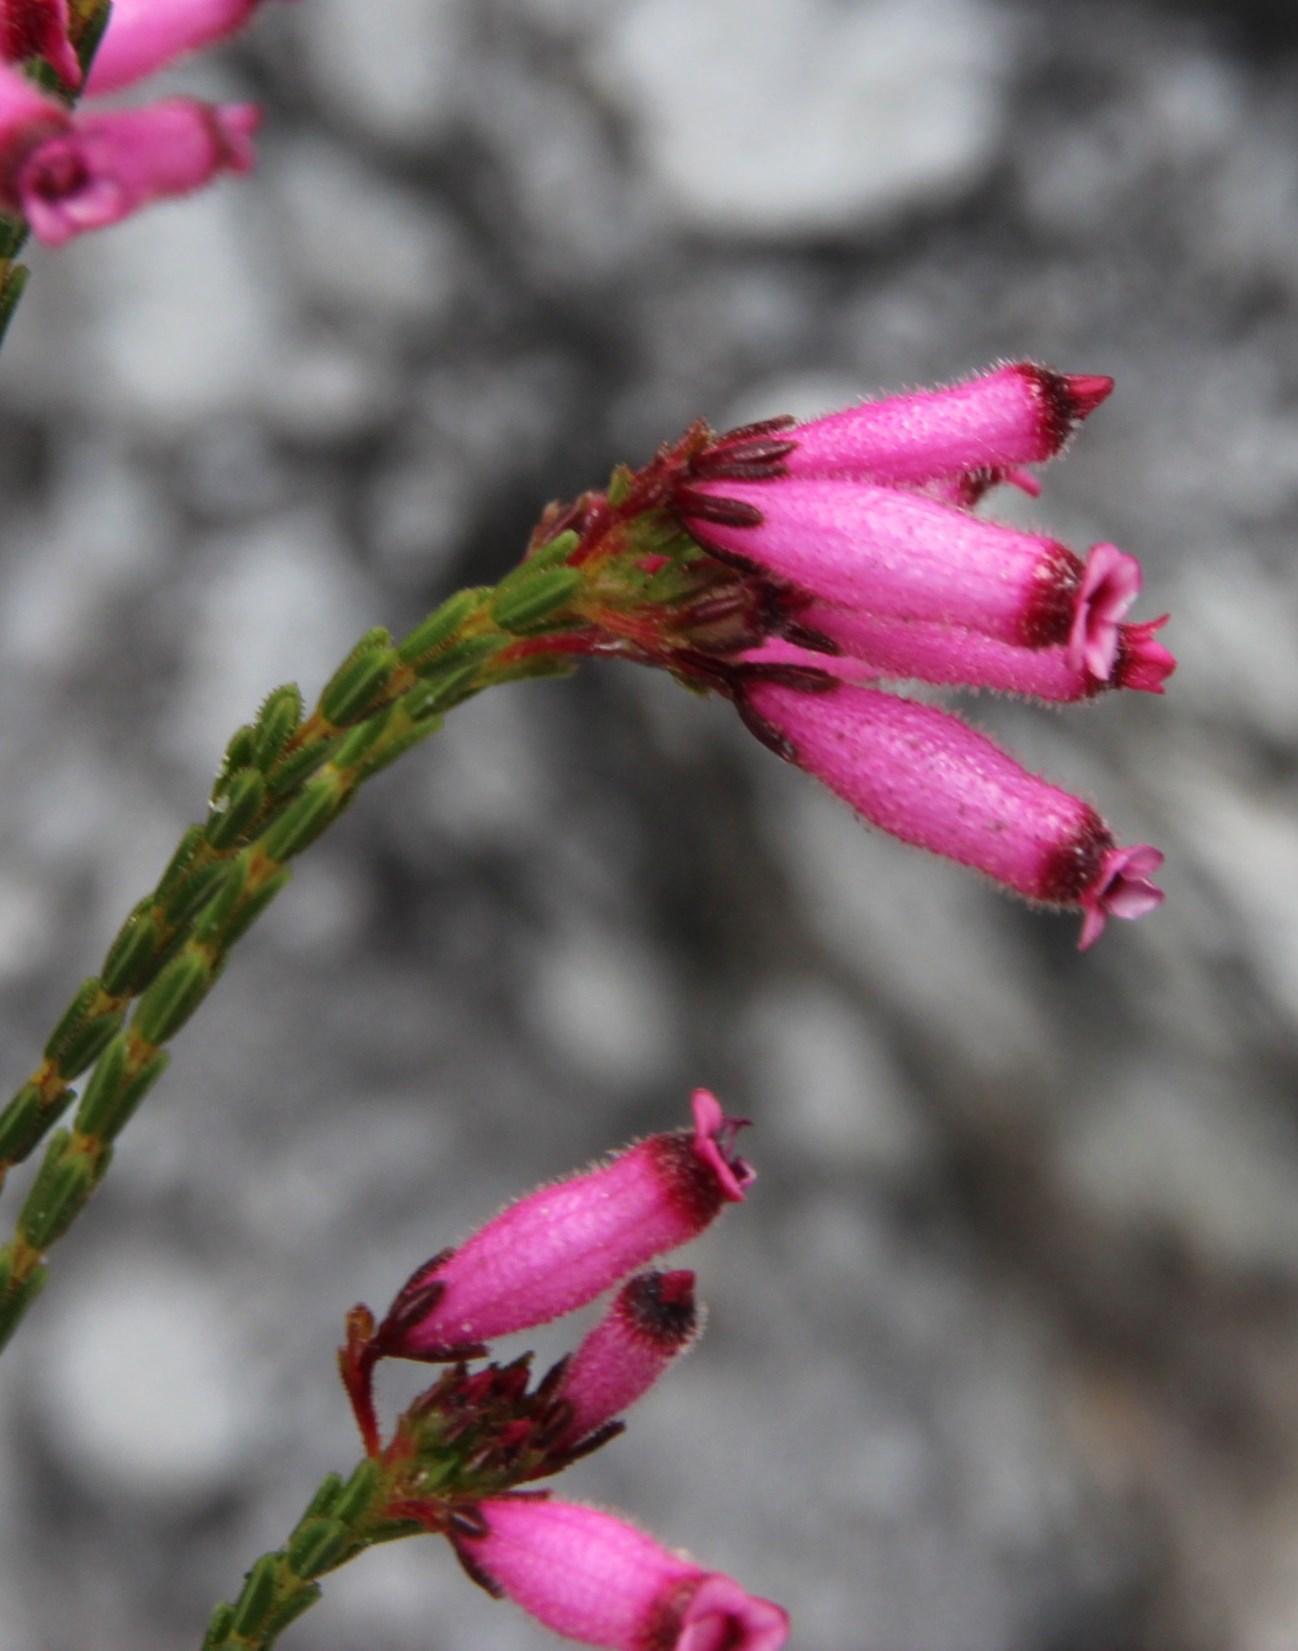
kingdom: Plantae
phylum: Tracheophyta
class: Magnoliopsida
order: Ericales
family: Ericaceae
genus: Erica
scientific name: Erica cristata
